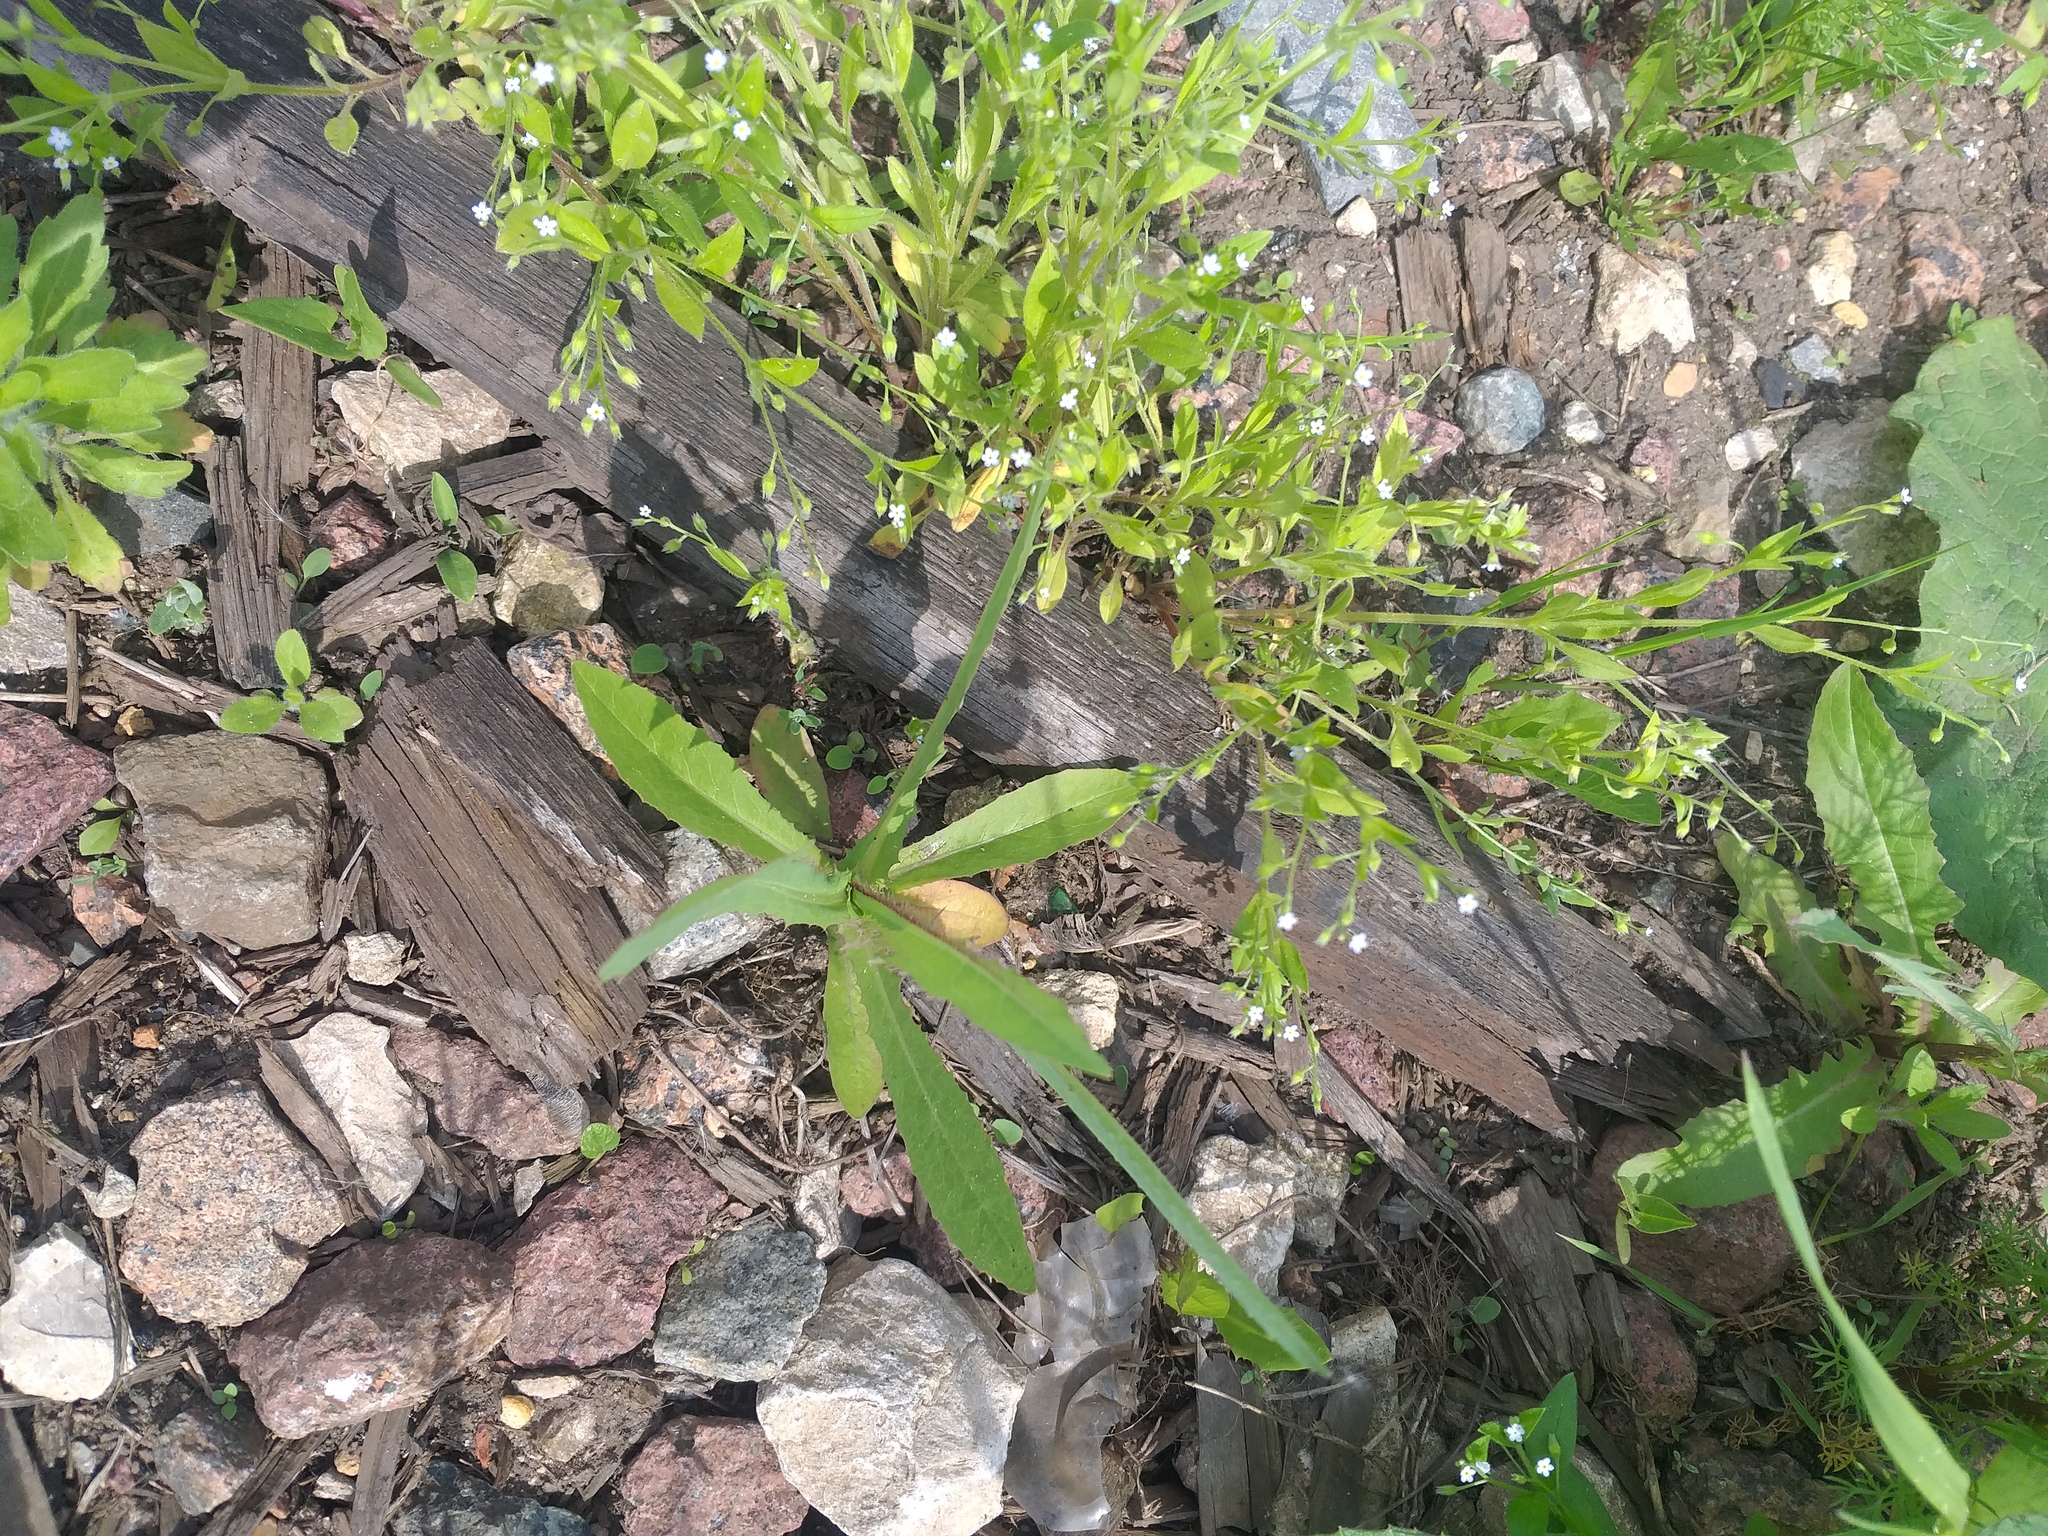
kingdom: Plantae
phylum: Tracheophyta
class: Magnoliopsida
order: Asterales
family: Asteraceae
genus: Lactuca
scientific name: Lactuca serriola
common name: Prickly lettuce
